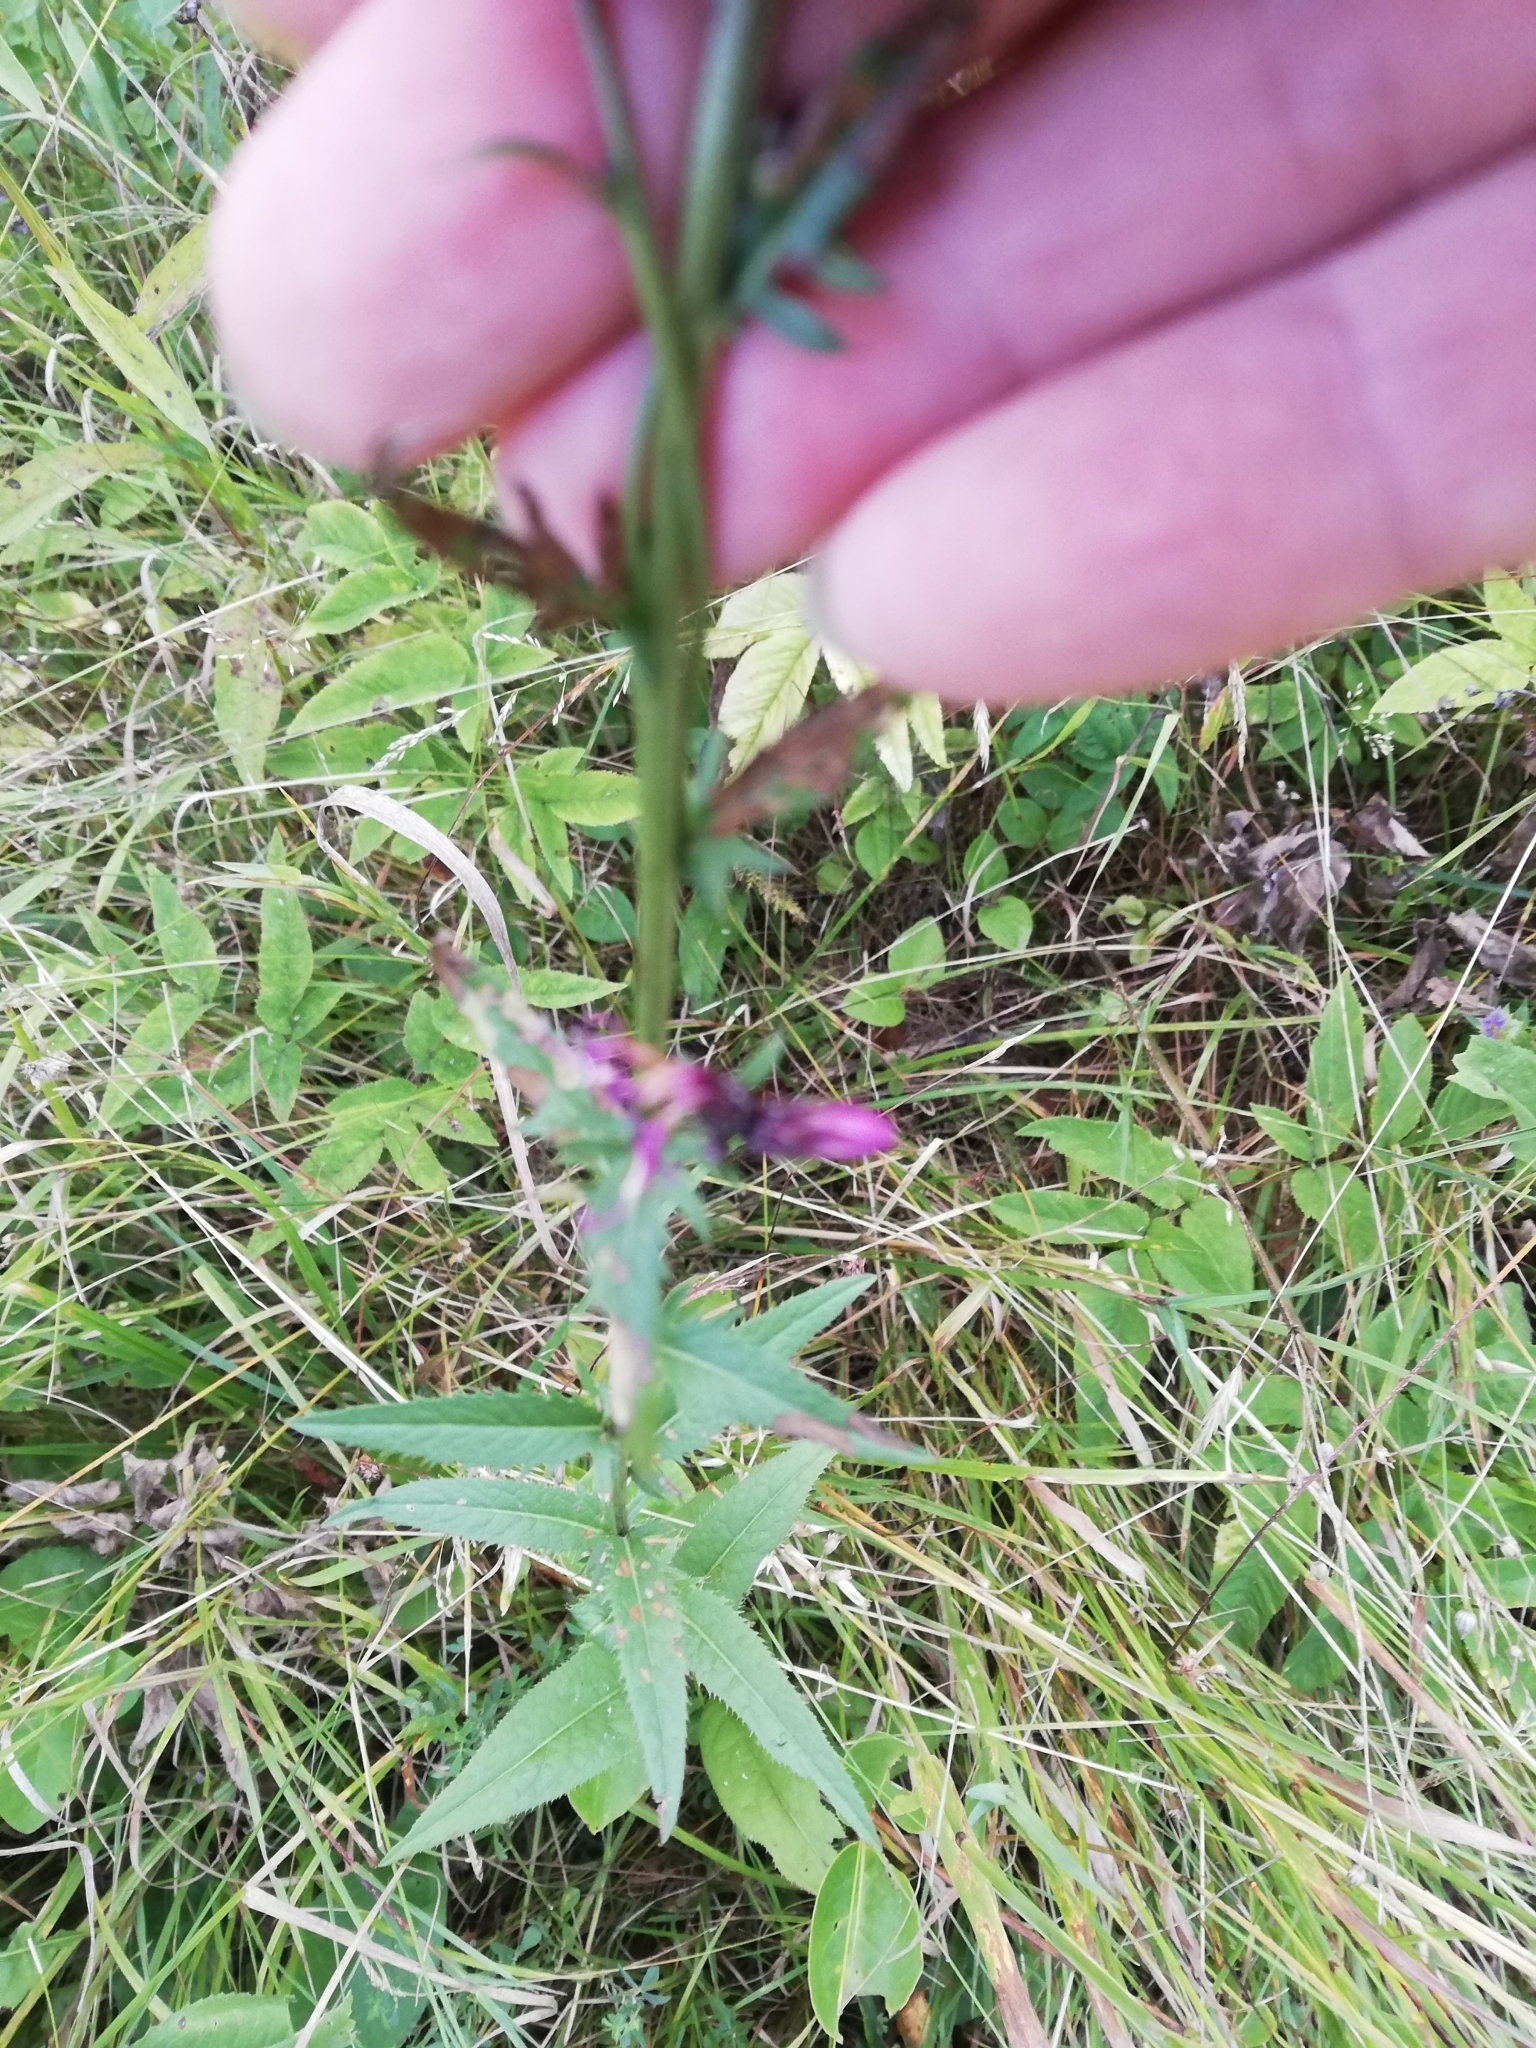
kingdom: Plantae
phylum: Tracheophyta
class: Magnoliopsida
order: Asterales
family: Asteraceae
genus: Serratula
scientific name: Serratula tinctoria
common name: Saw-wort
